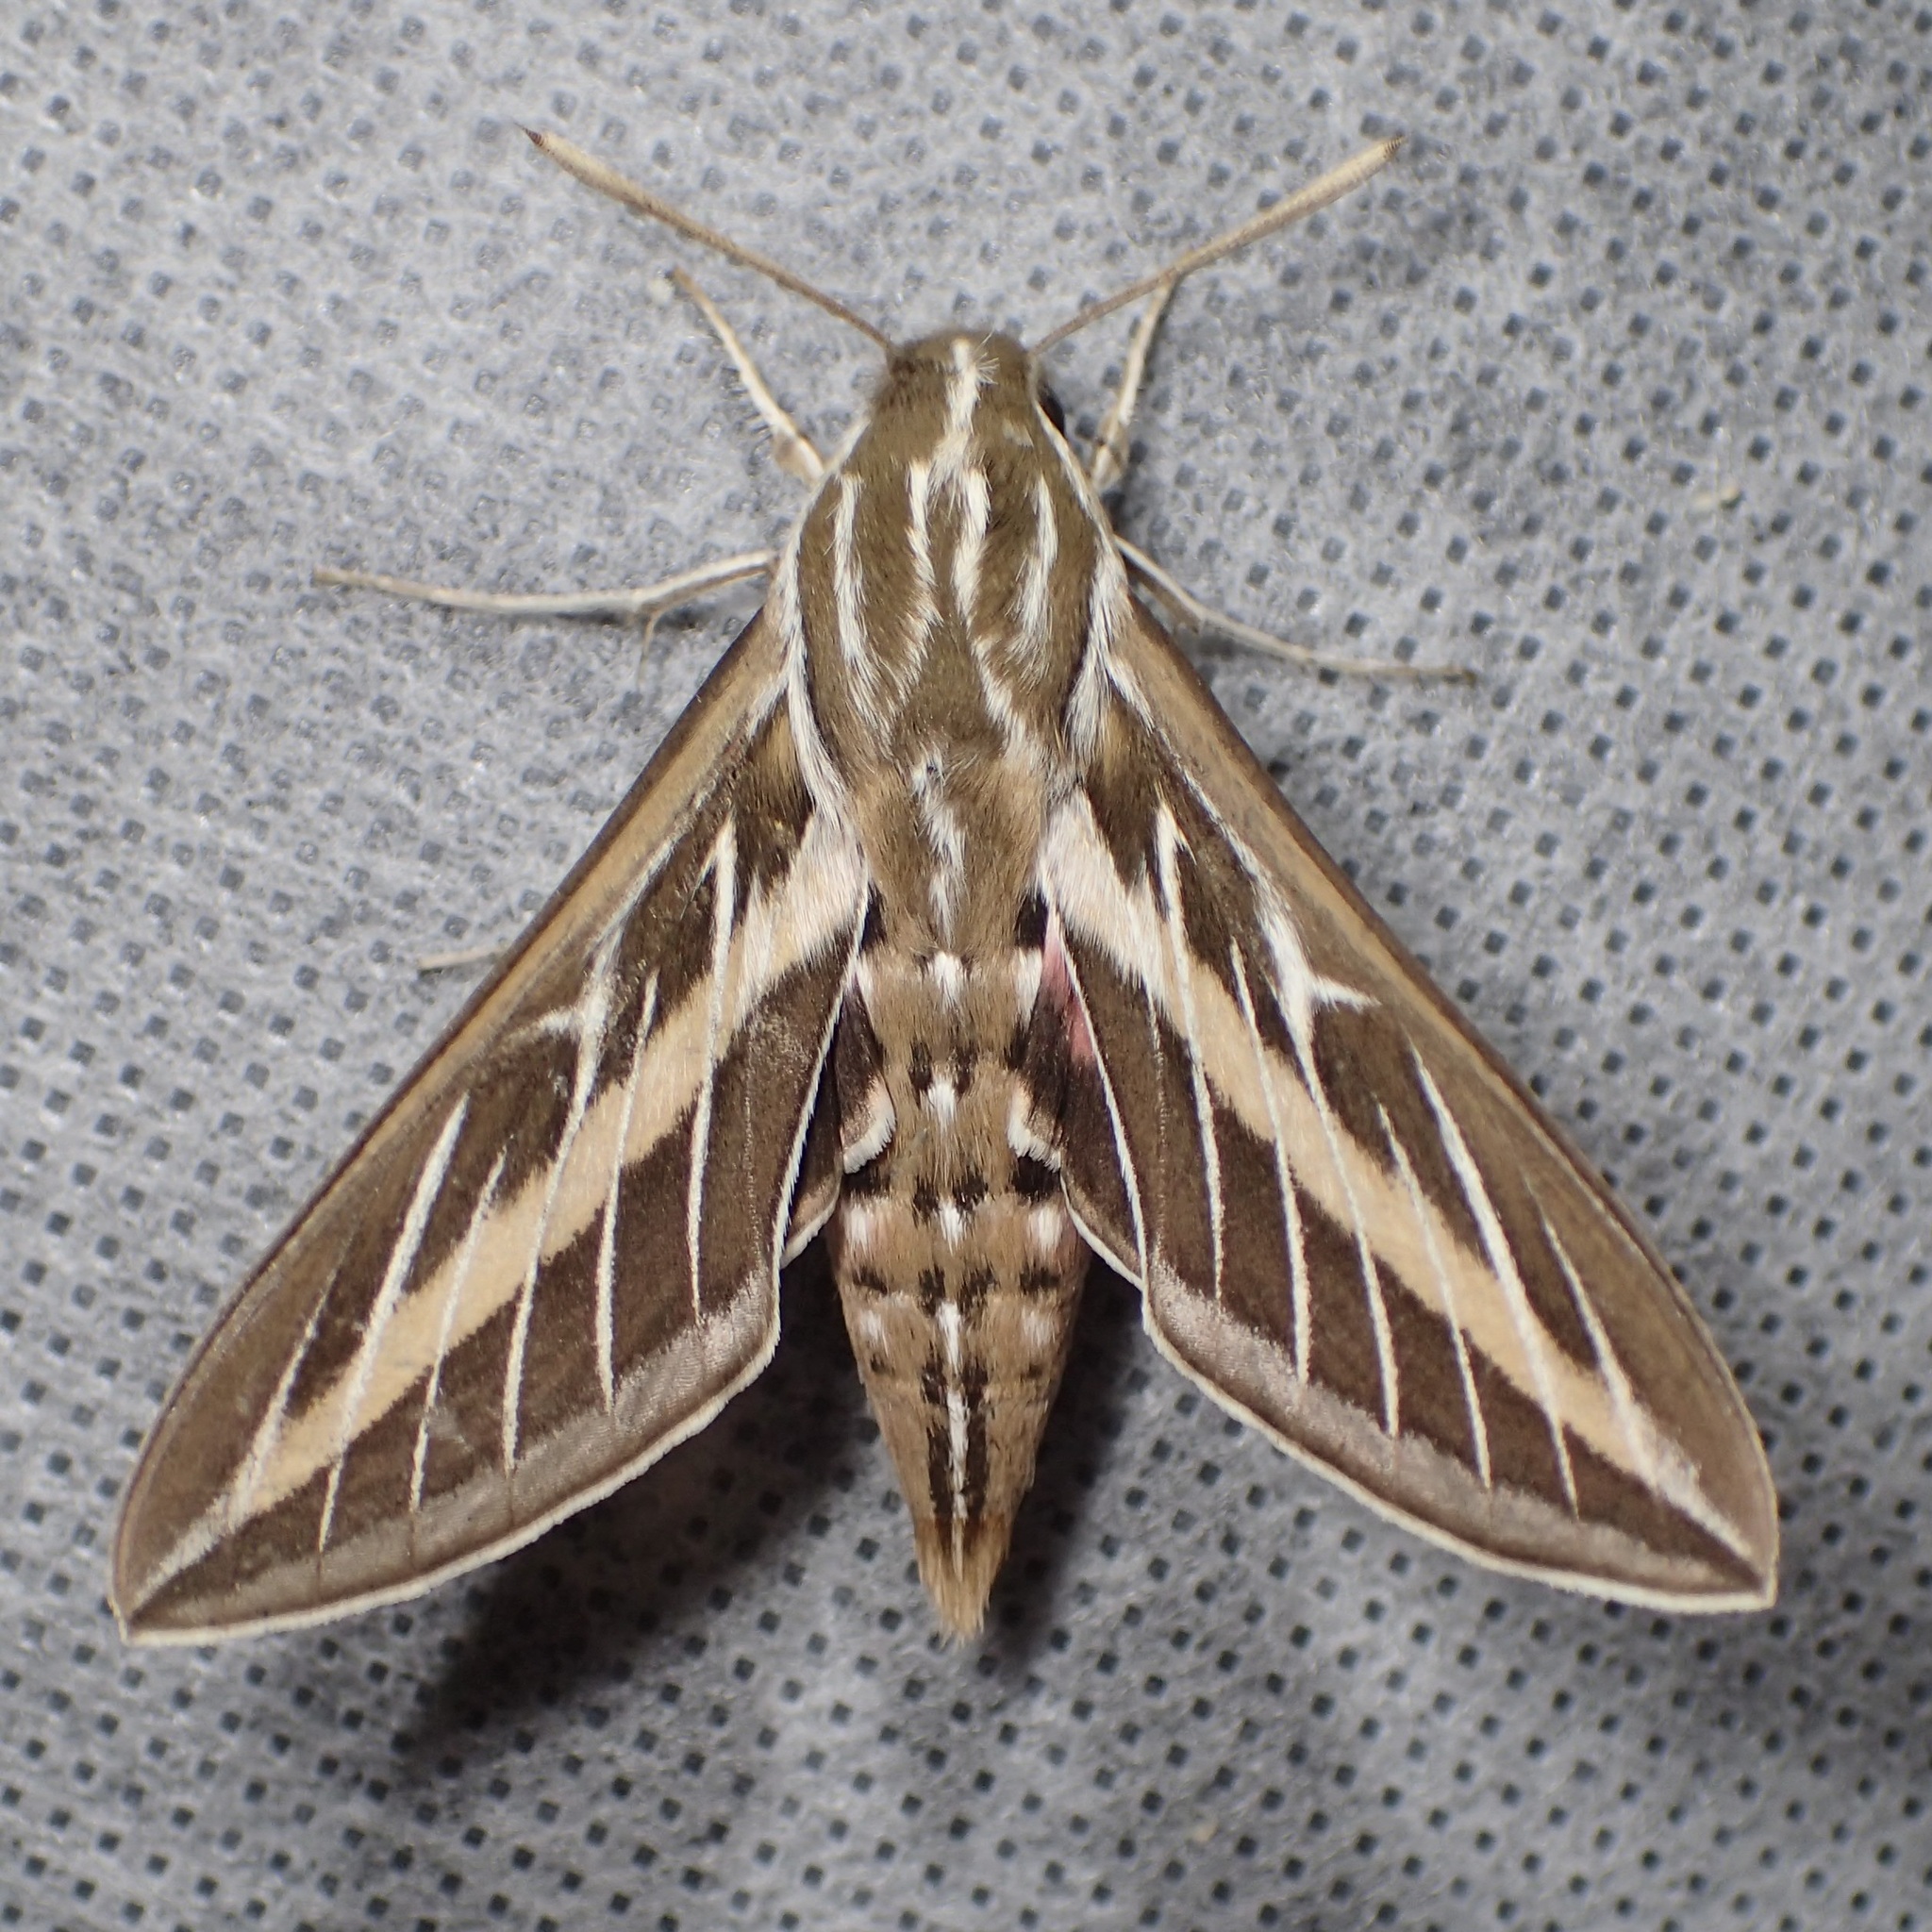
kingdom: Animalia
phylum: Arthropoda
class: Insecta
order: Lepidoptera
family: Sphingidae
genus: Hyles
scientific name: Hyles lineata
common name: White-lined sphinx
